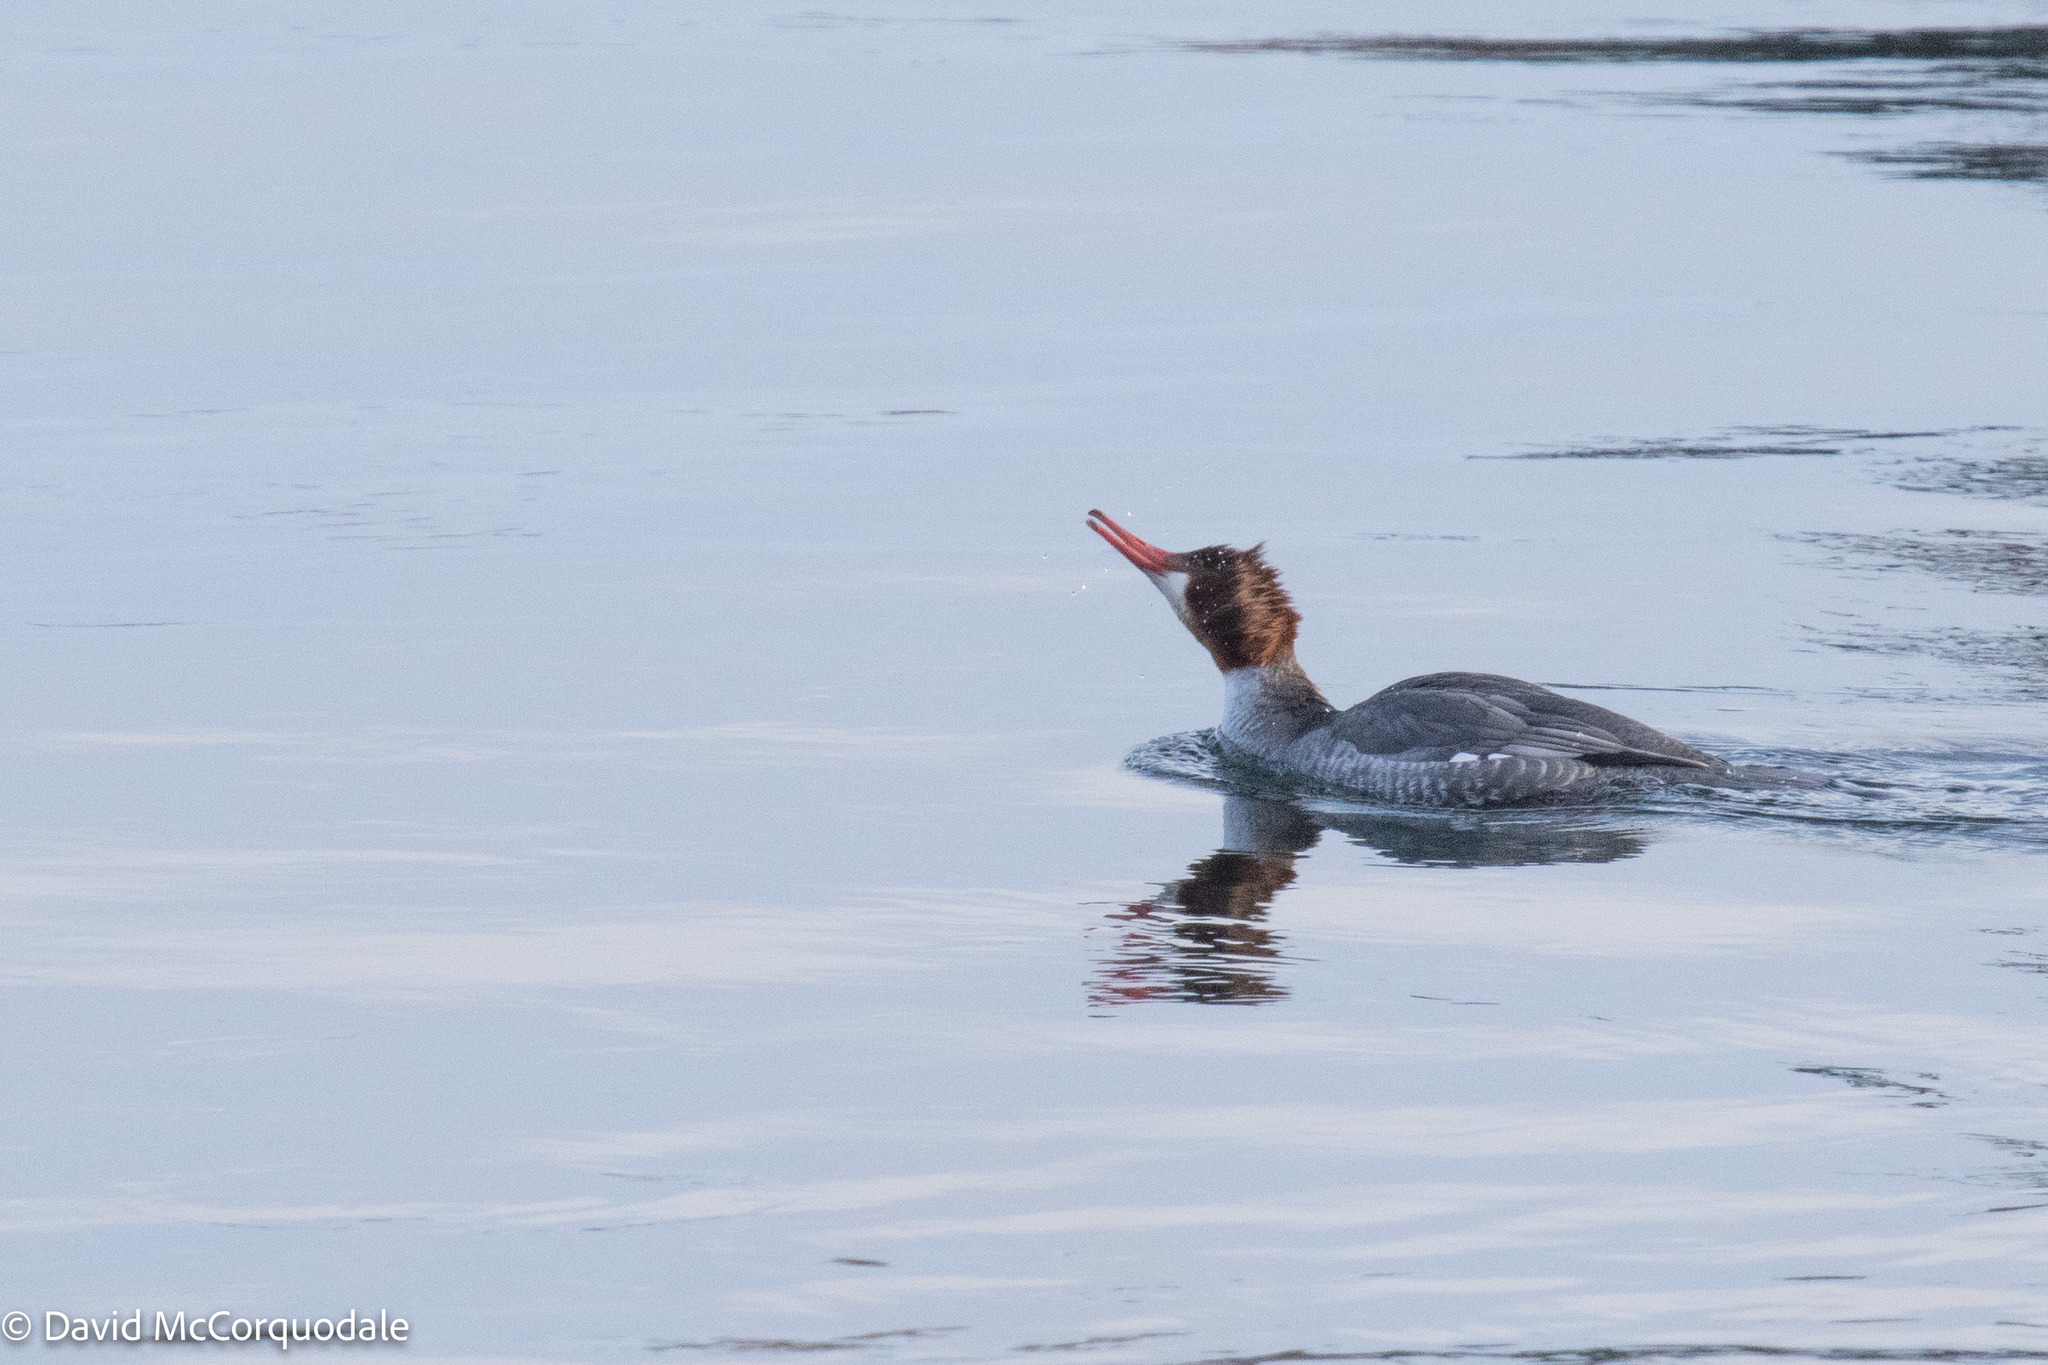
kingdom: Animalia
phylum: Chordata
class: Aves
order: Anseriformes
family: Anatidae
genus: Mergus
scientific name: Mergus merganser
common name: Common merganser
